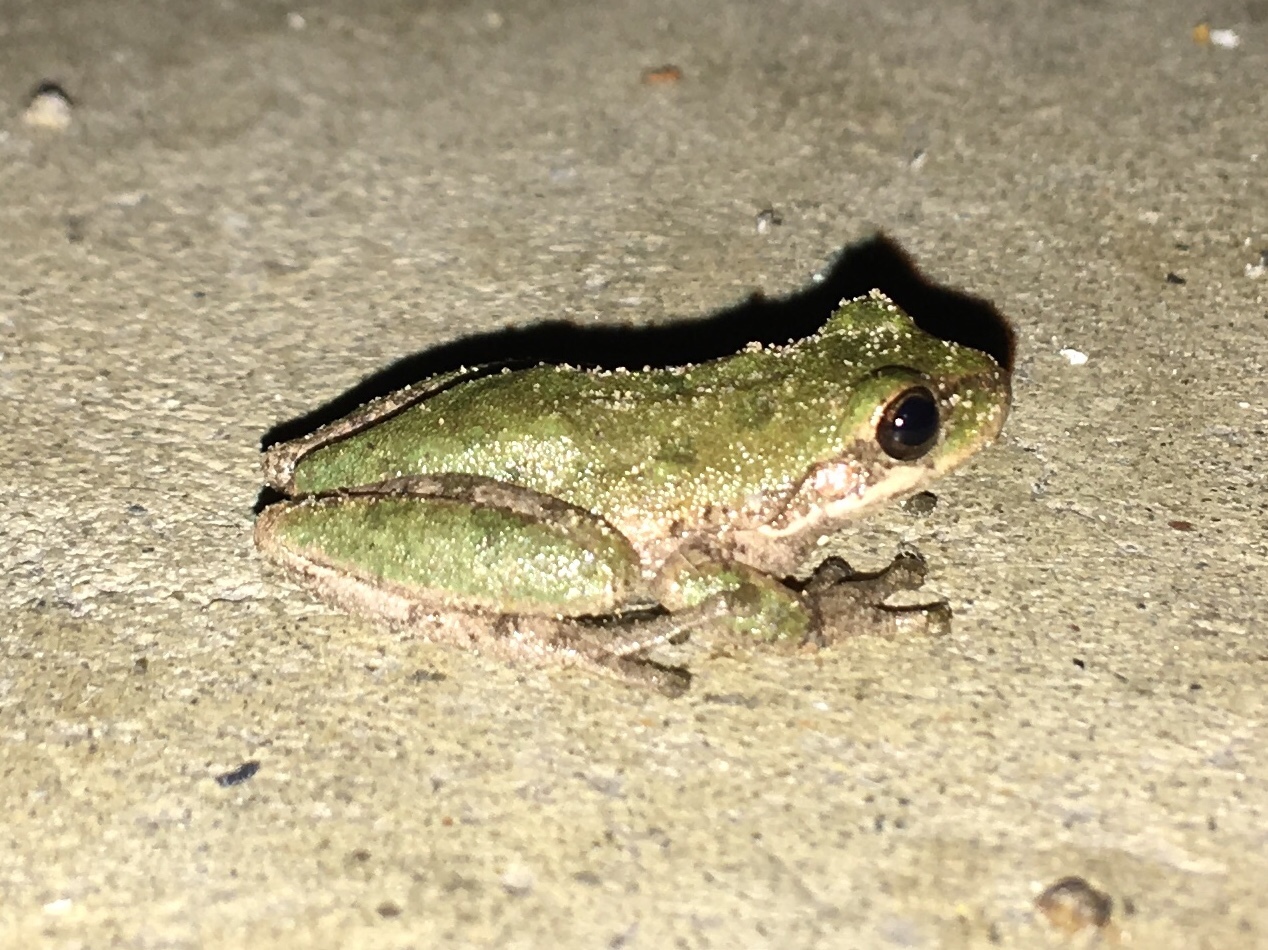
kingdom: Animalia
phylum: Chordata
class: Amphibia
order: Anura
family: Hylidae
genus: Dryophytes
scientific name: Dryophytes squirellus
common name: Squirrel treefrog
